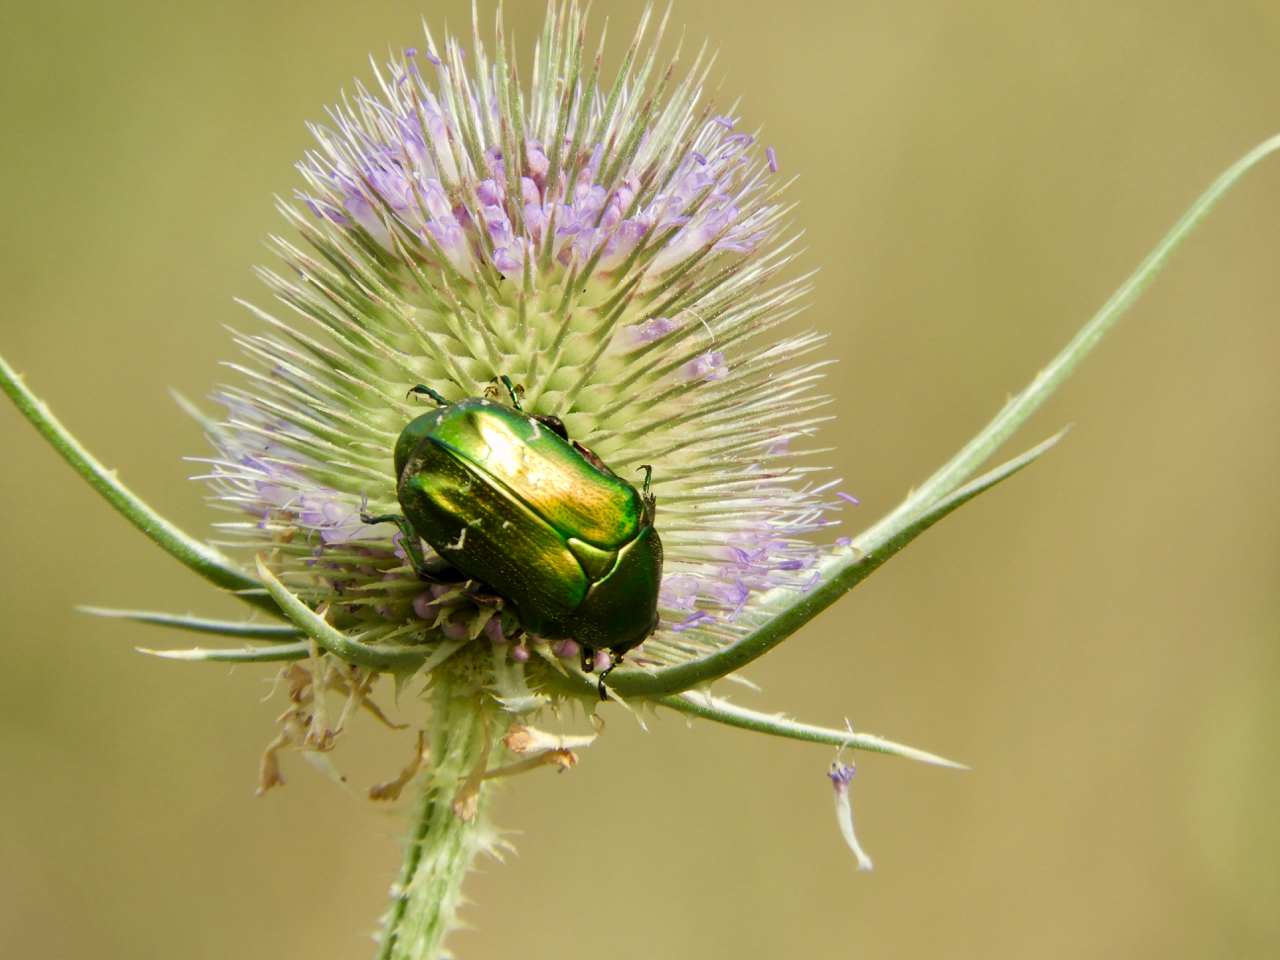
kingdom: Animalia
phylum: Arthropoda
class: Insecta
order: Coleoptera
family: Scarabaeidae
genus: Cetonia
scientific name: Cetonia aurata
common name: Rose chafer
